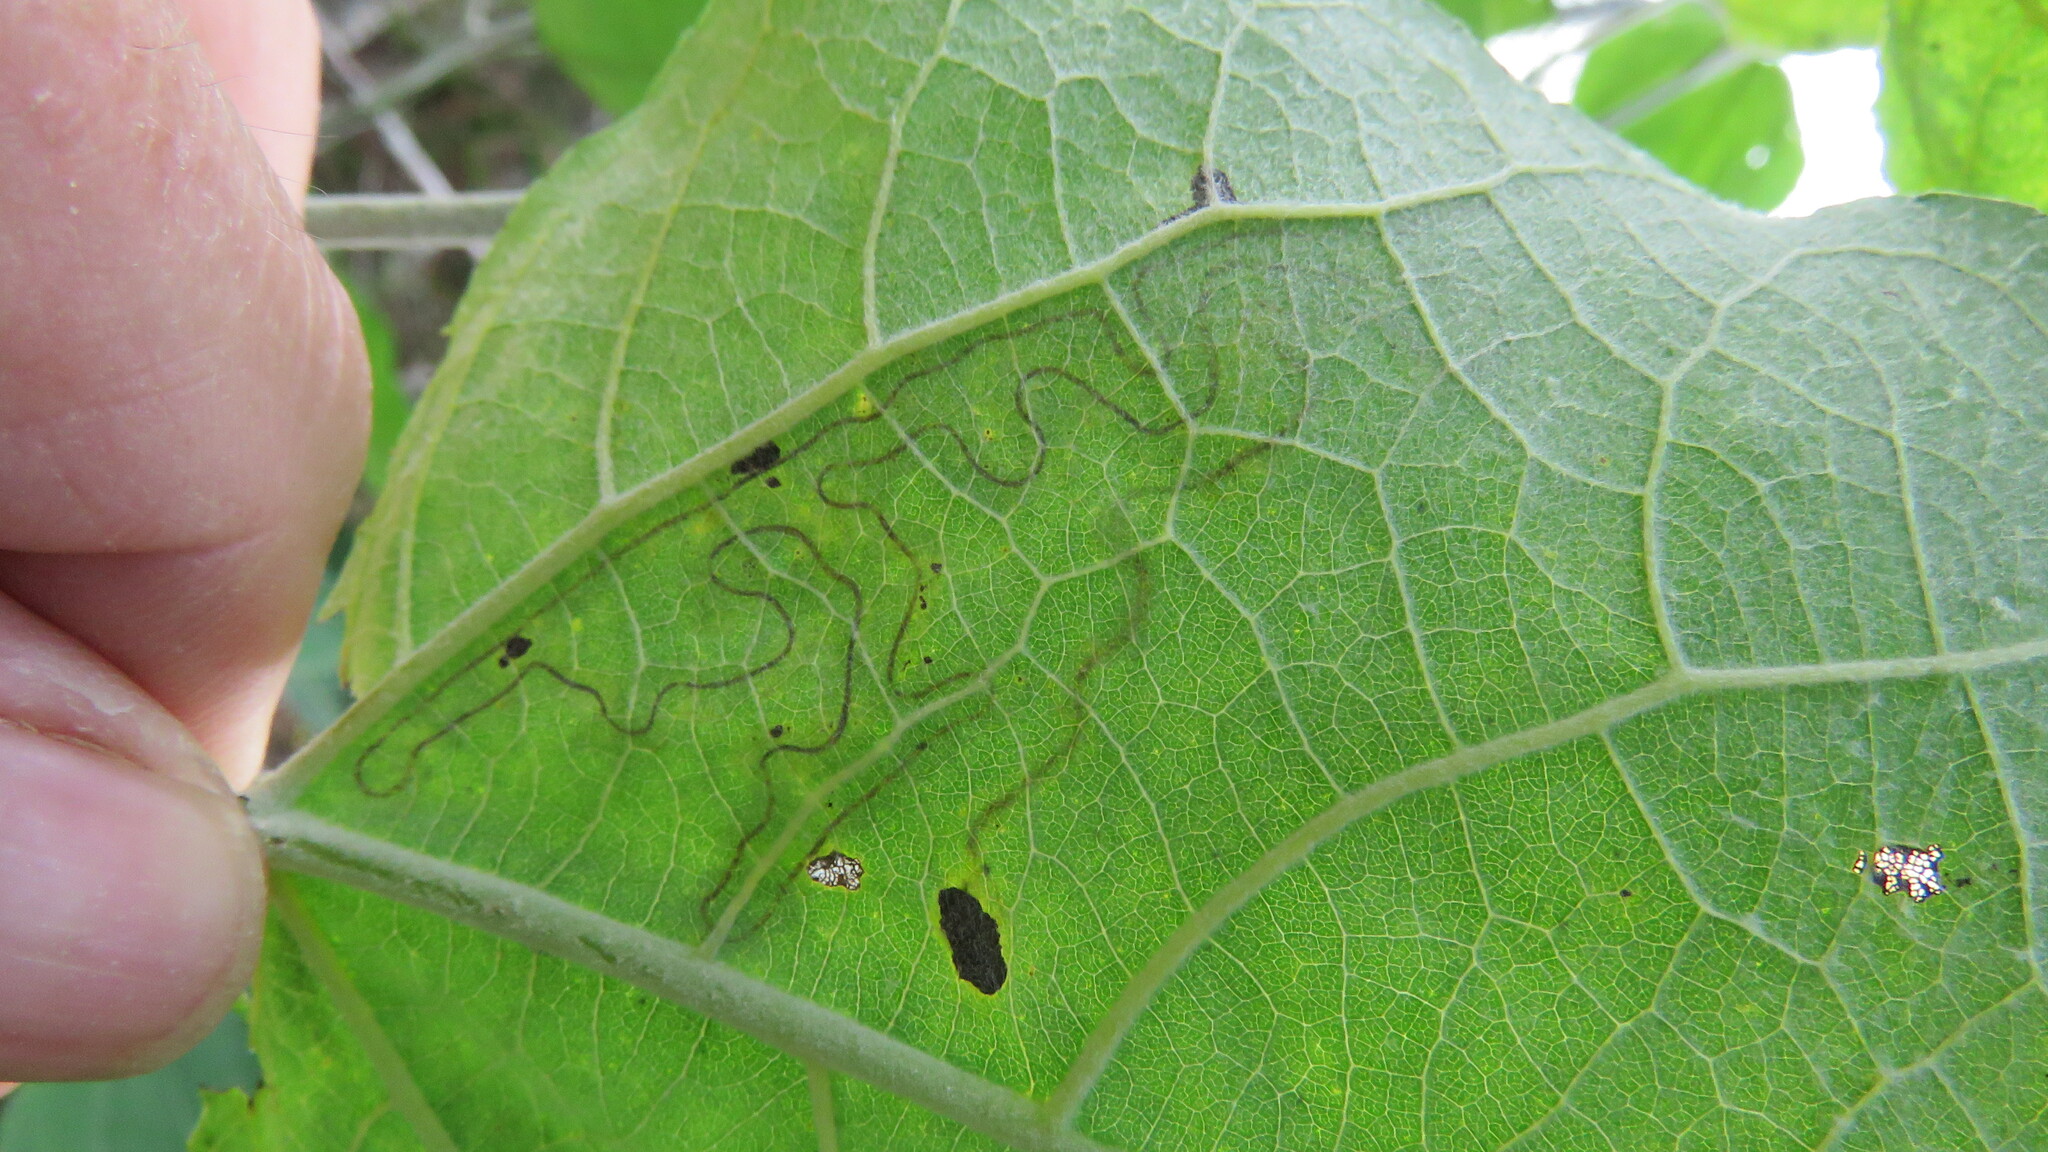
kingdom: Animalia
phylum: Arthropoda
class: Insecta
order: Lepidoptera
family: Gracillariidae
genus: Phyllocnistis
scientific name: Phyllocnistis populiella
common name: Aspen serpentine leafminer moth
